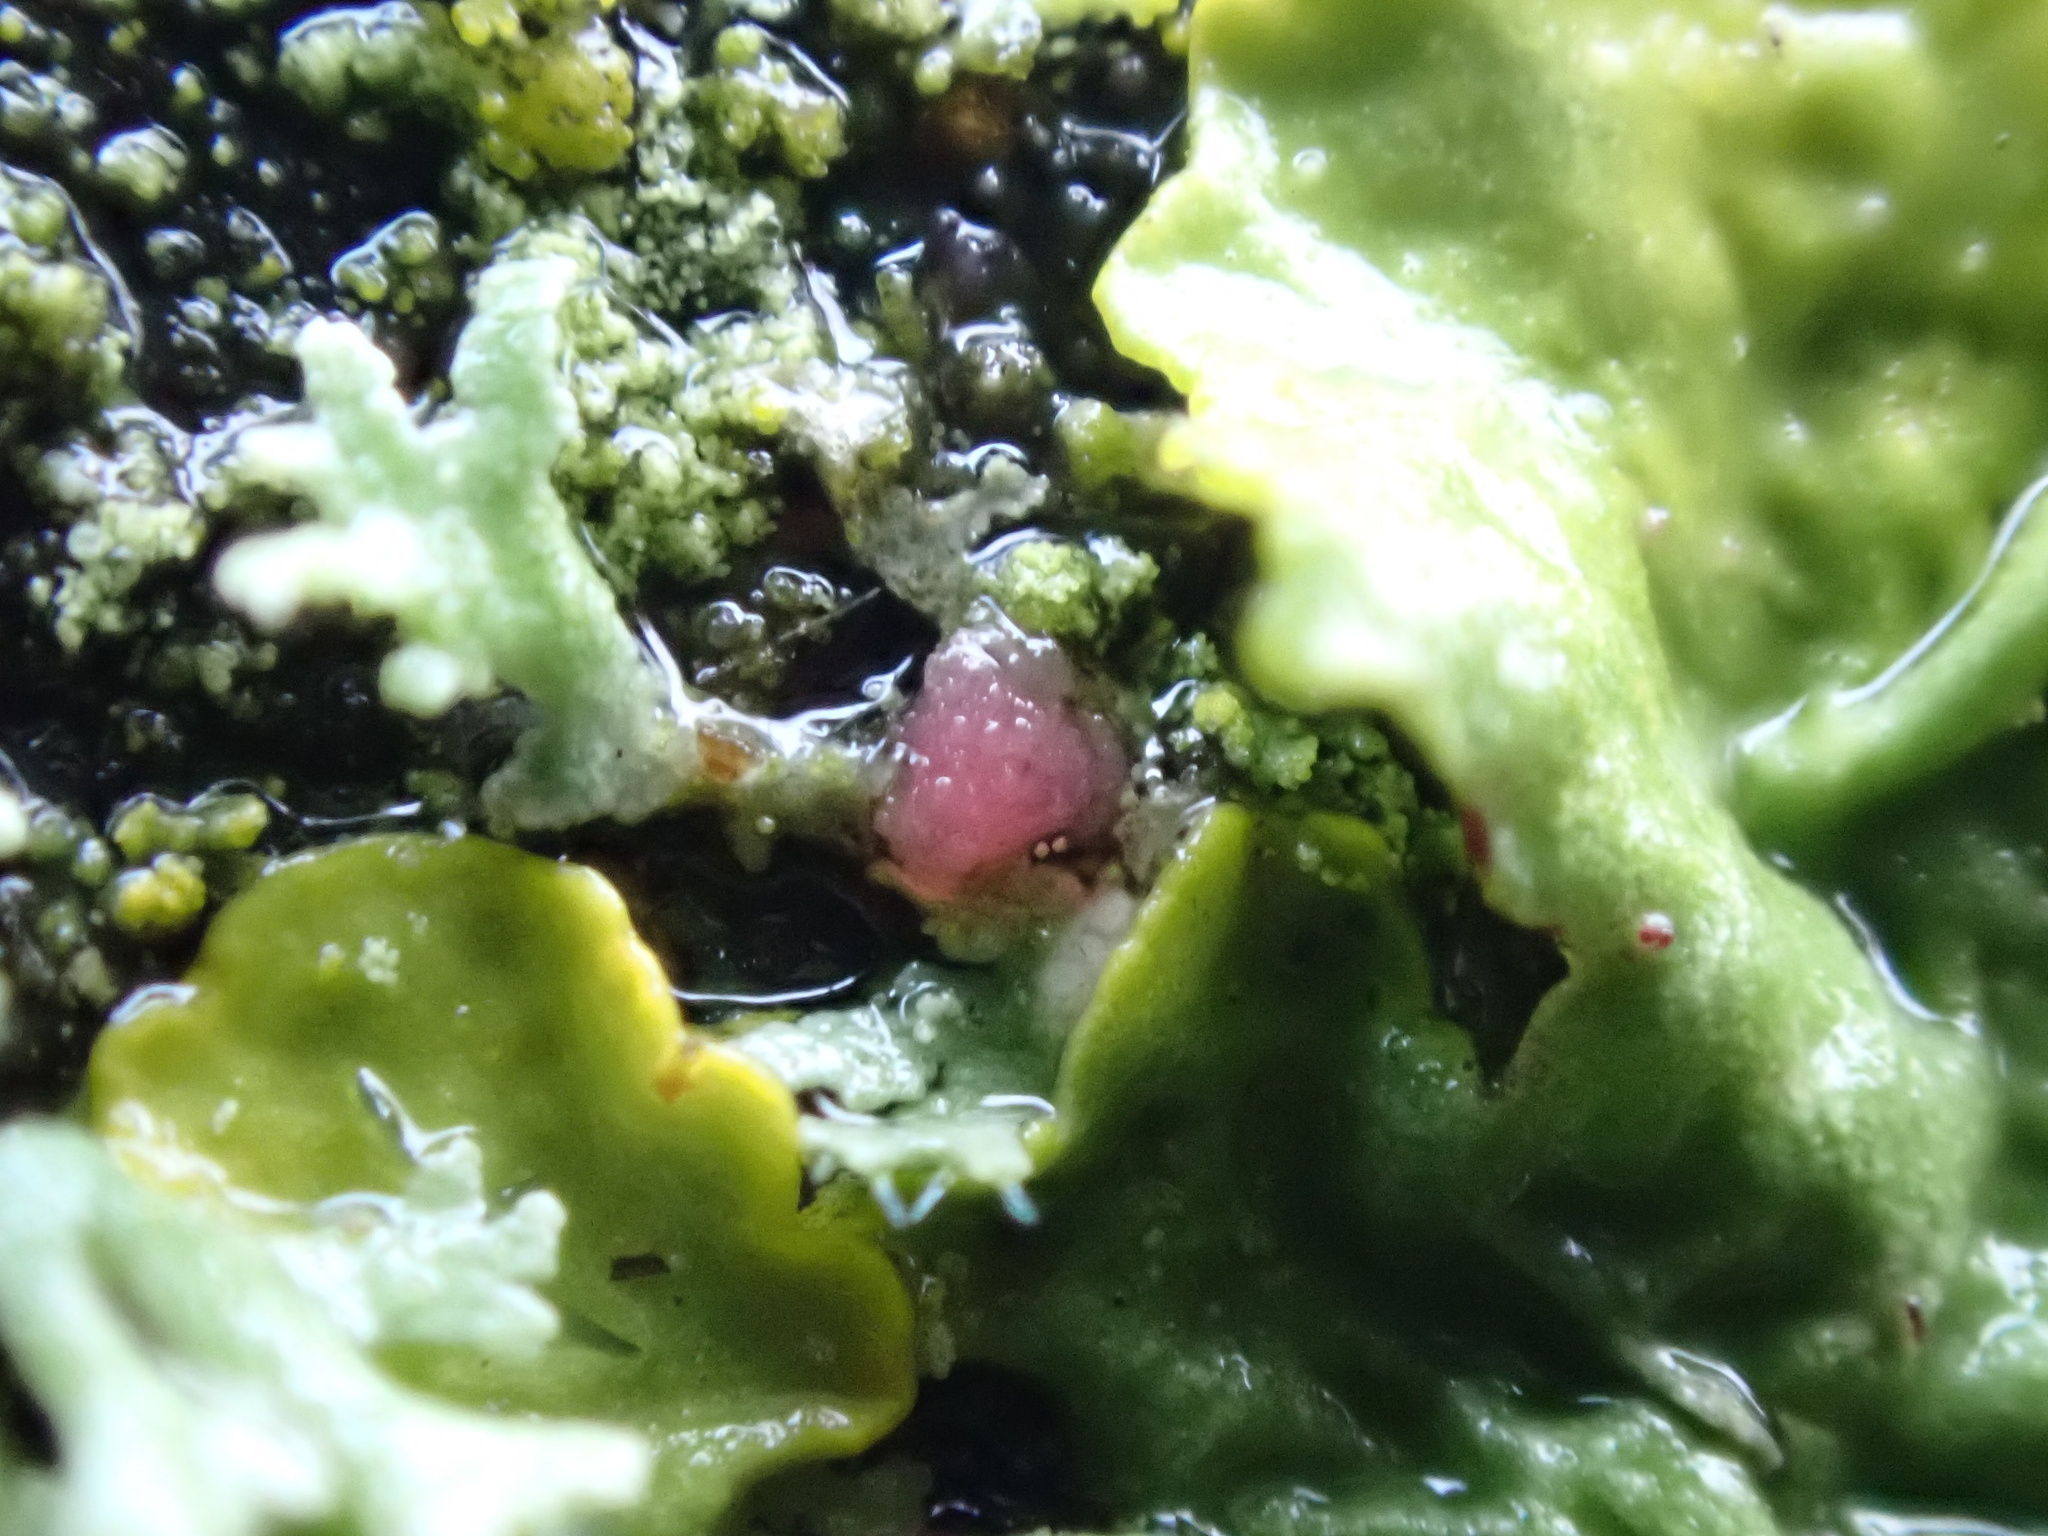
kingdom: Fungi
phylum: Ascomycota
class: Sordariomycetes
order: Hypocreales
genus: Illosporiopsis
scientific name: Illosporiopsis christiansenii
